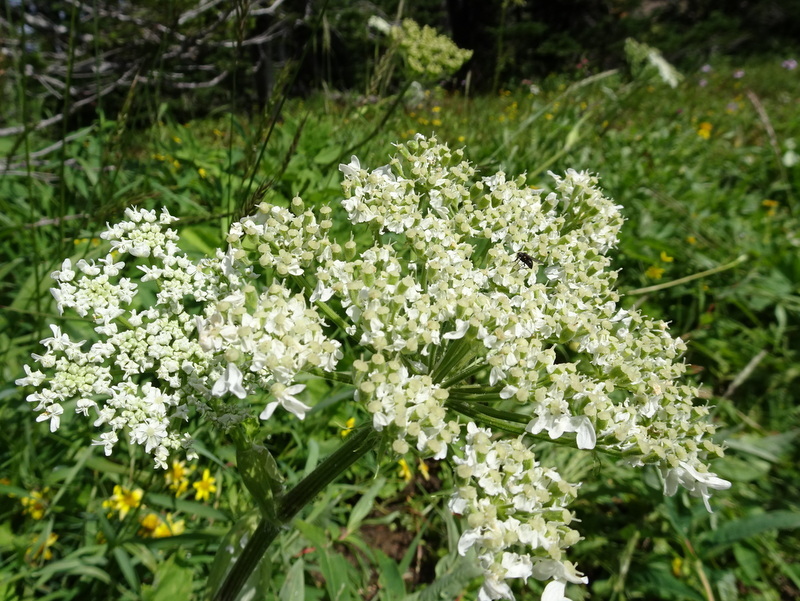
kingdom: Plantae
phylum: Tracheophyta
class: Magnoliopsida
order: Apiales
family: Apiaceae
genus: Heracleum
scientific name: Heracleum maximum
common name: American cow parsnip
